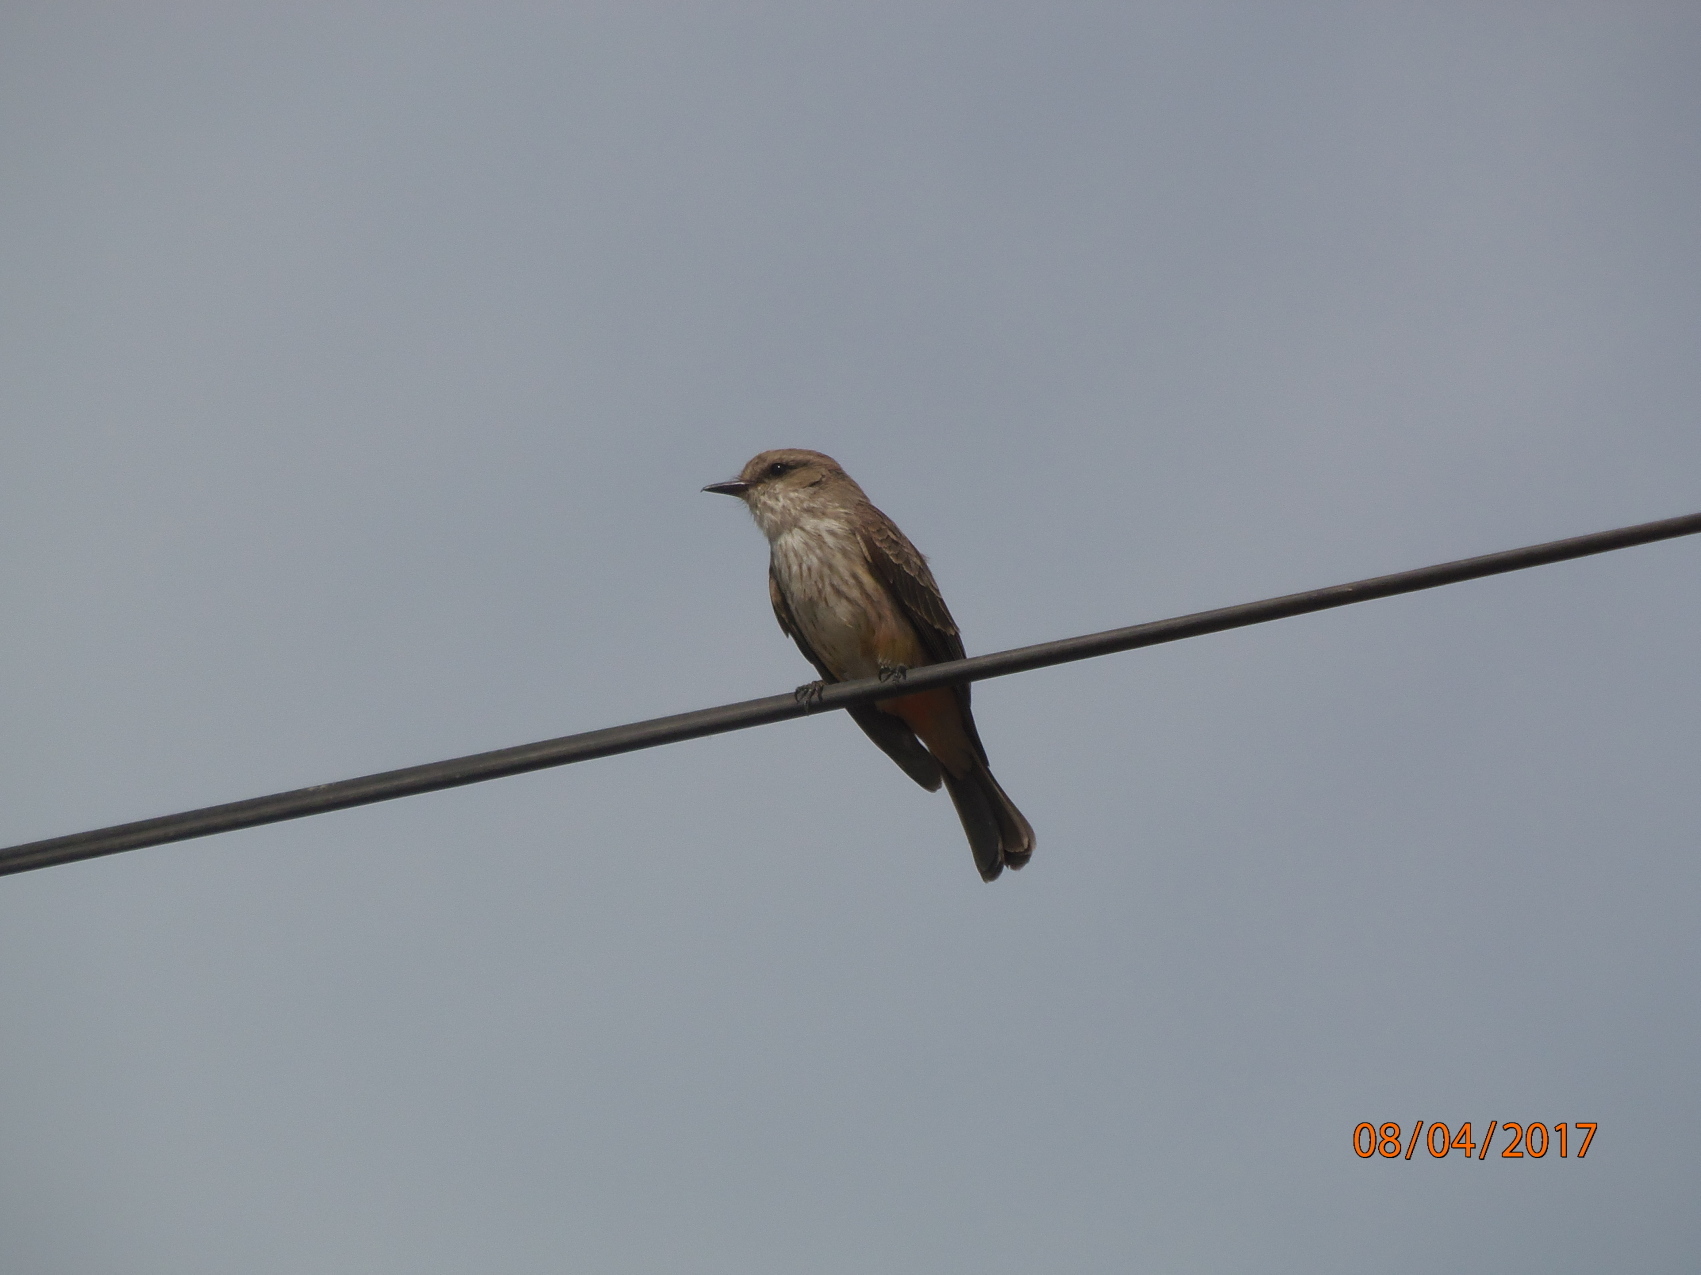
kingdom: Animalia
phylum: Chordata
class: Aves
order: Passeriformes
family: Tyrannidae
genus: Pyrocephalus
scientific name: Pyrocephalus rubinus
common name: Vermilion flycatcher
